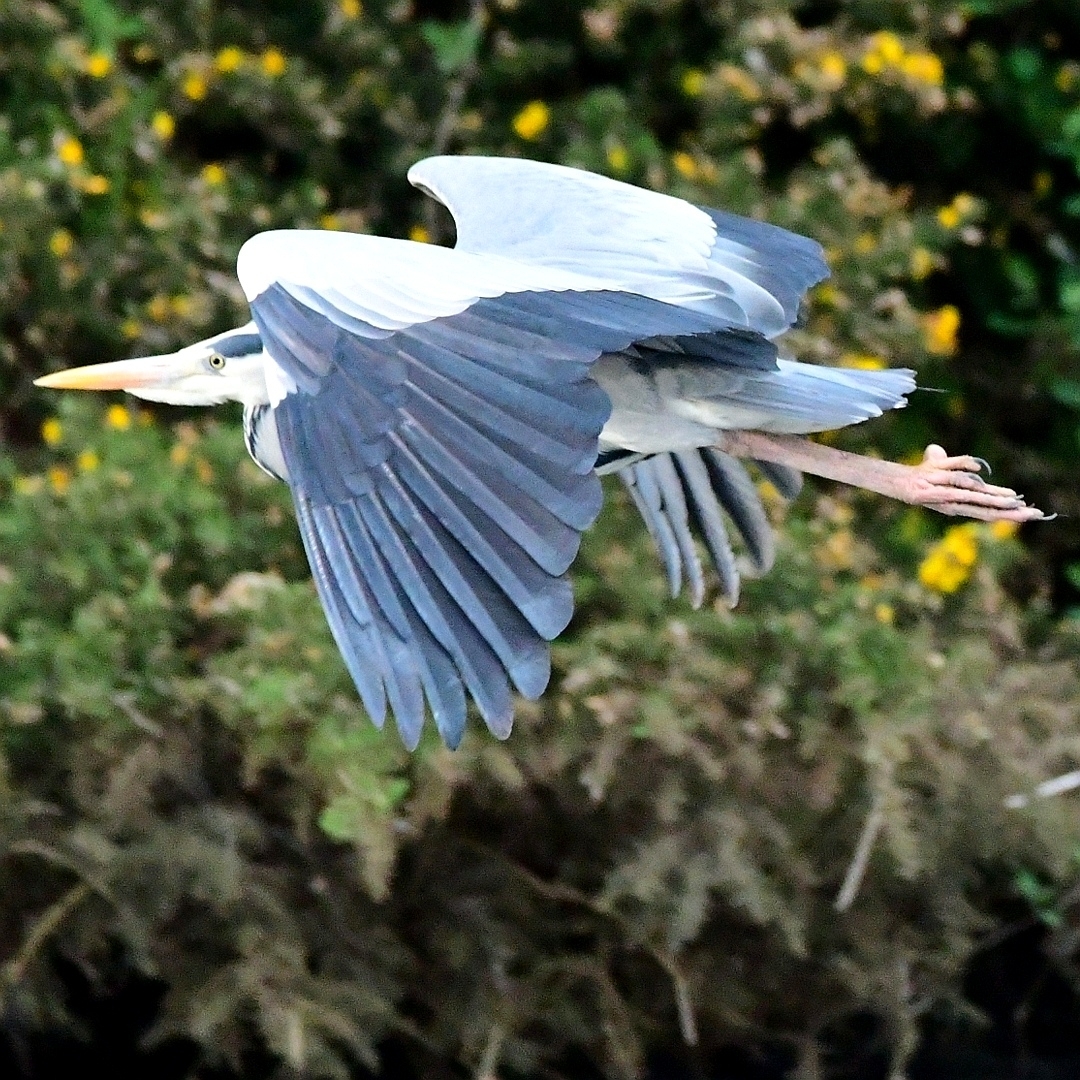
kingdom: Animalia
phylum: Chordata
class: Aves
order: Pelecaniformes
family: Ardeidae
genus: Ardea
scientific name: Ardea cinerea
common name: Grey heron
